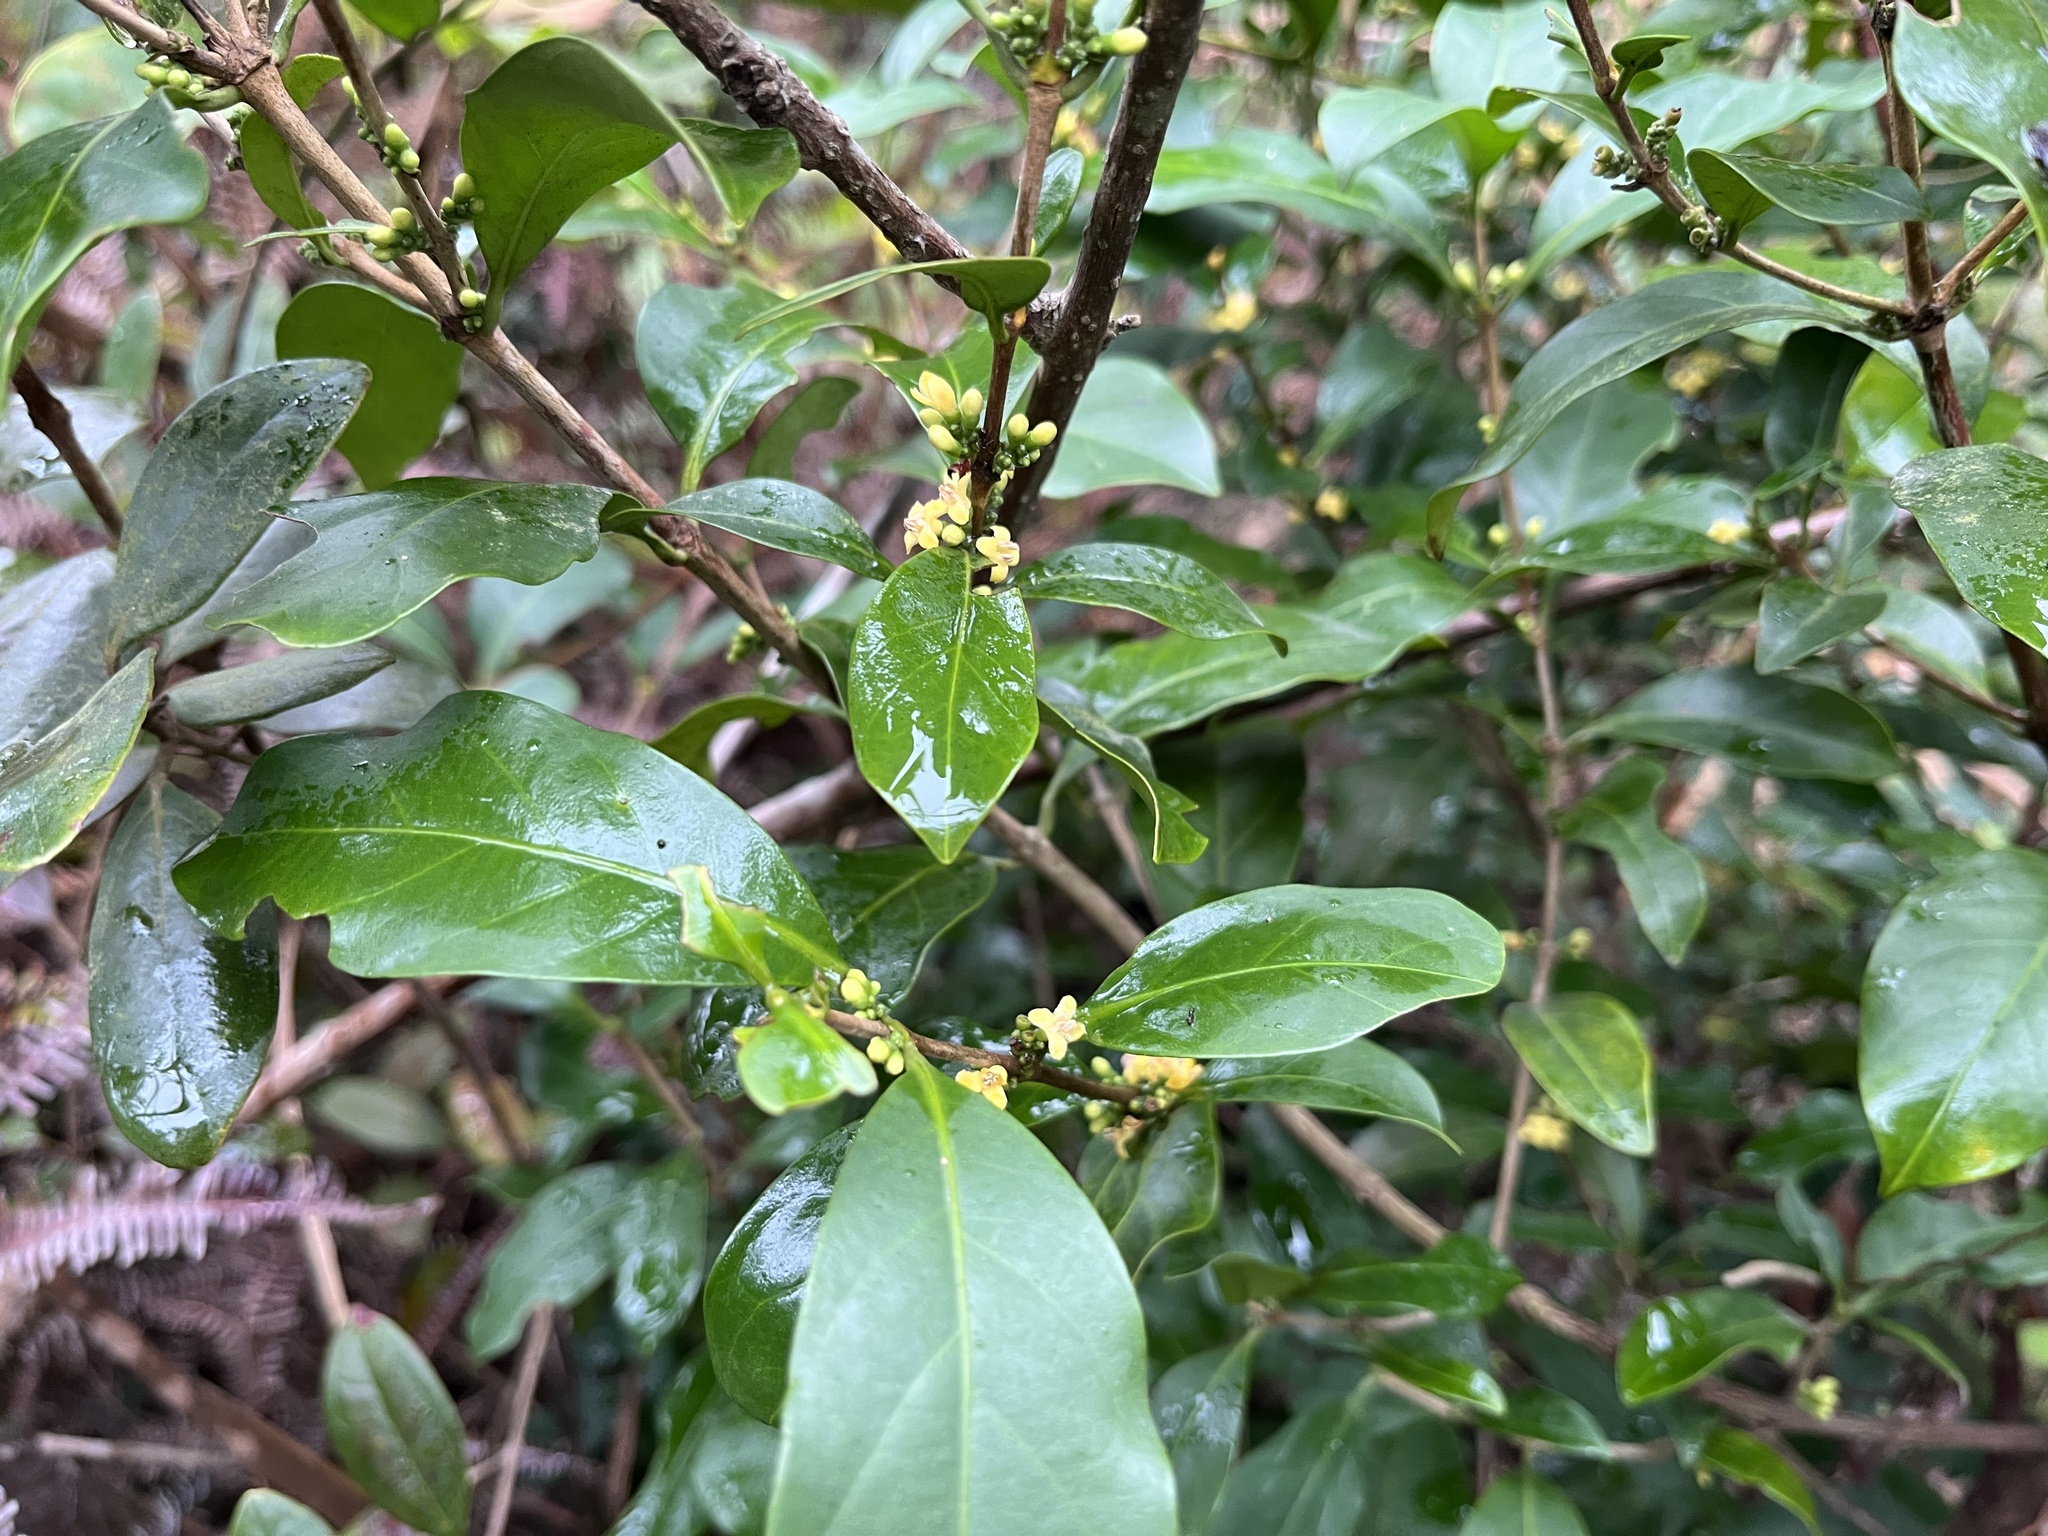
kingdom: Plantae
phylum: Tracheophyta
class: Magnoliopsida
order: Gentianales
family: Rubiaceae
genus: Diplospora
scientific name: Diplospora dubia
